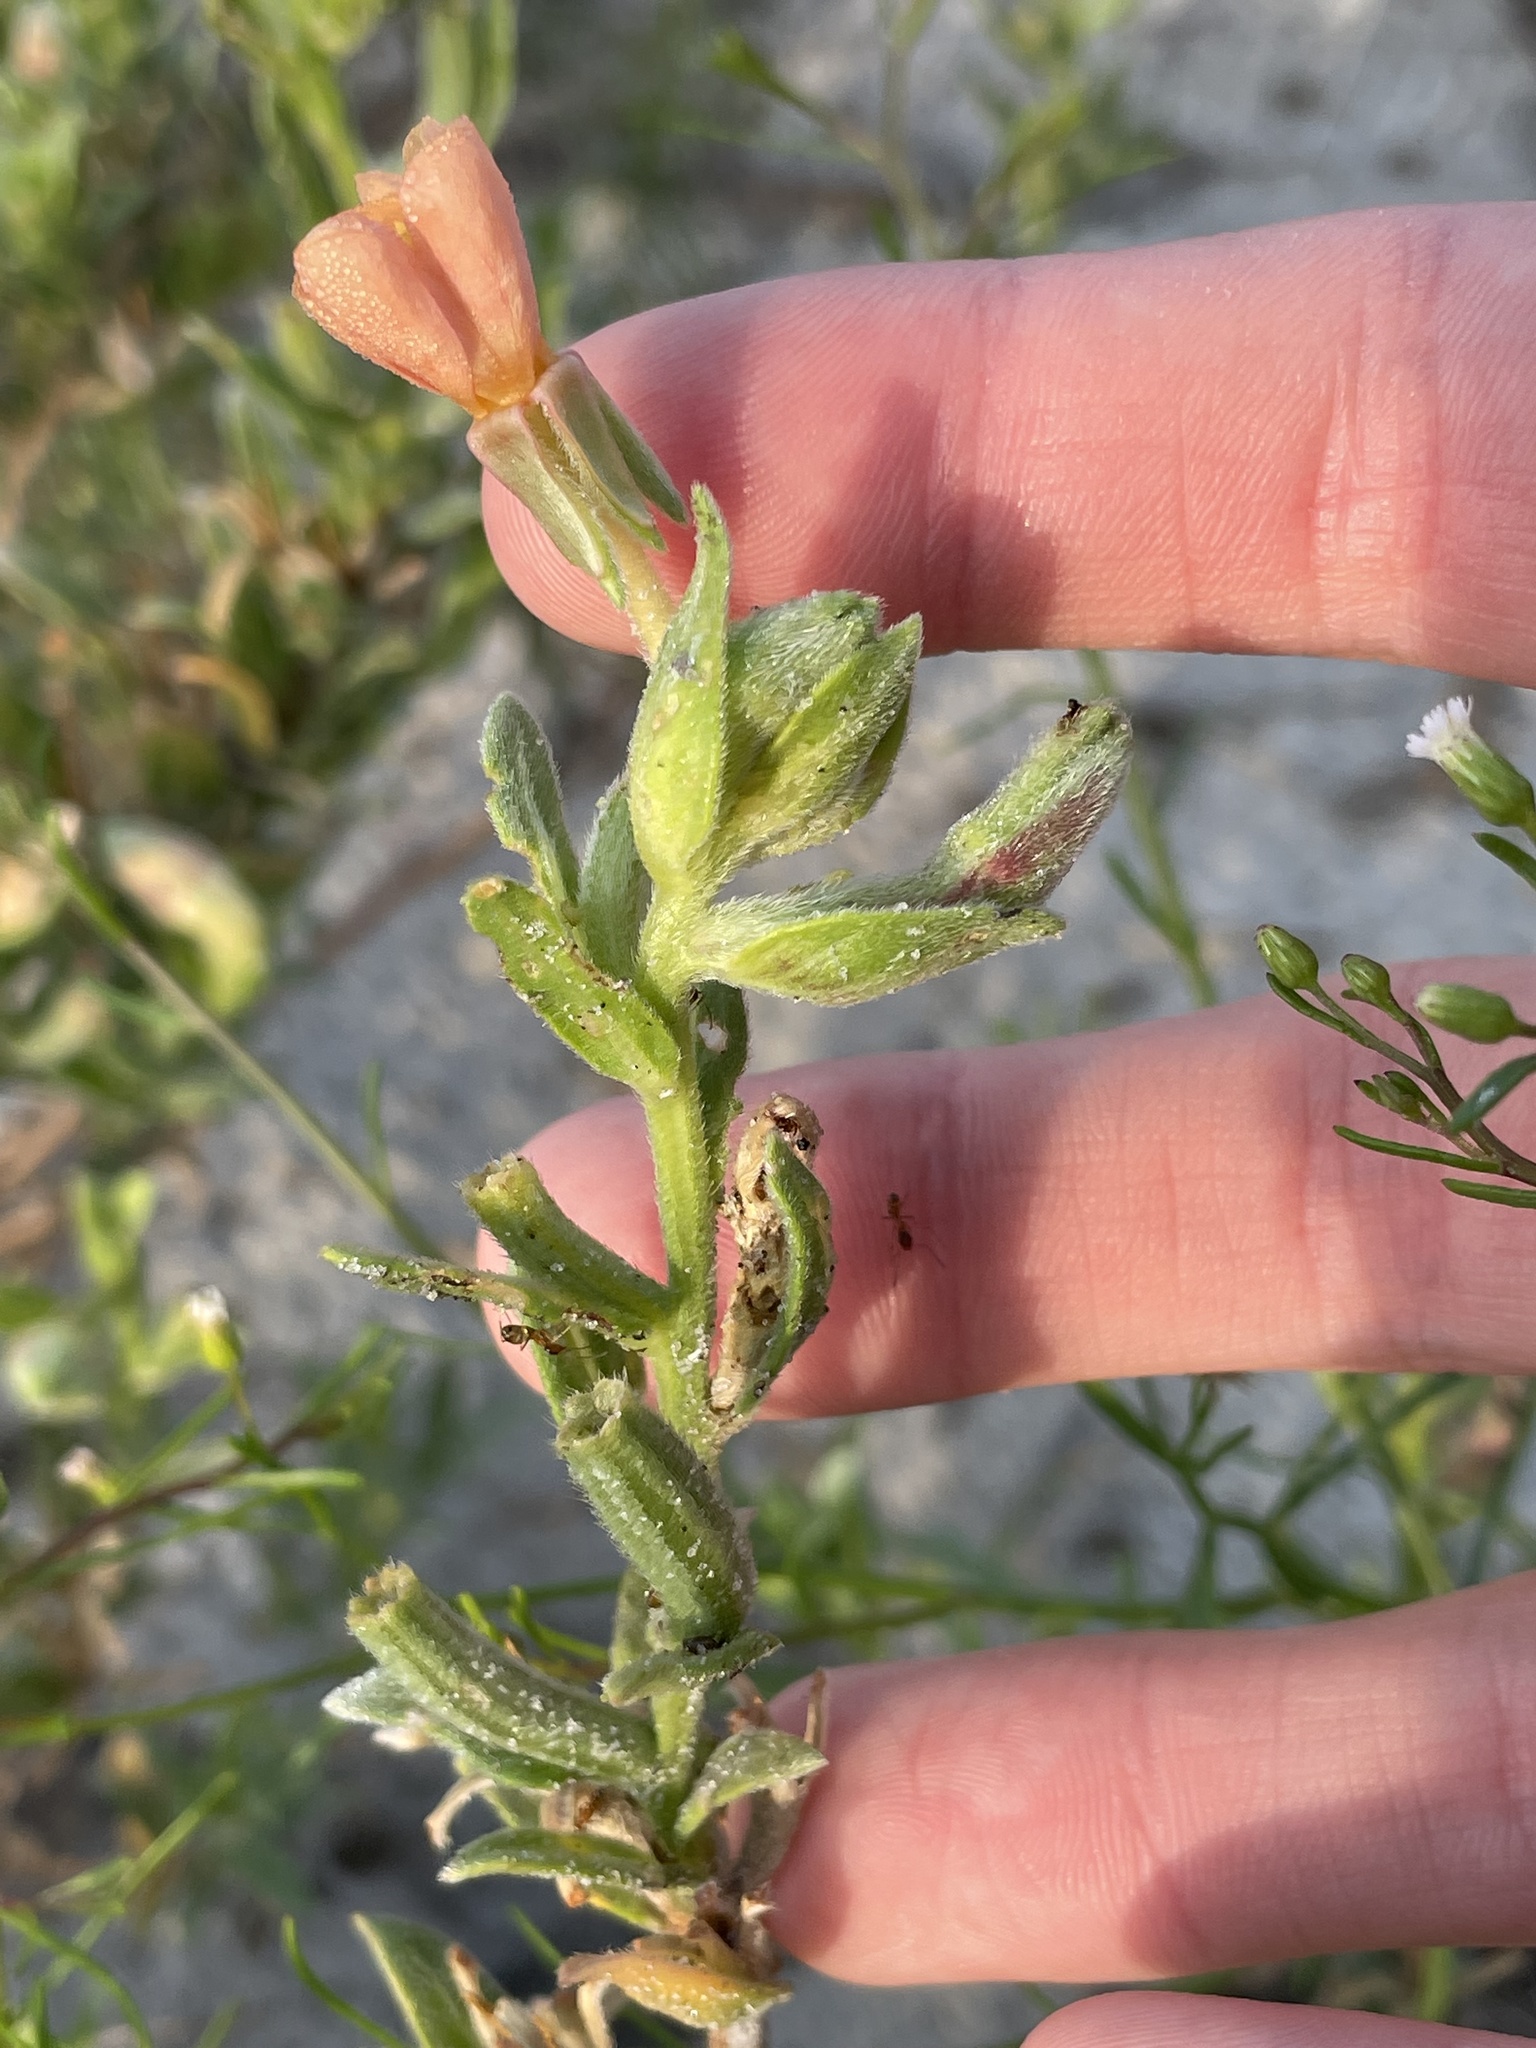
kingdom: Plantae
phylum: Tracheophyta
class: Magnoliopsida
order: Myrtales
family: Onagraceae
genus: Oenothera
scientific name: Oenothera humifusa
